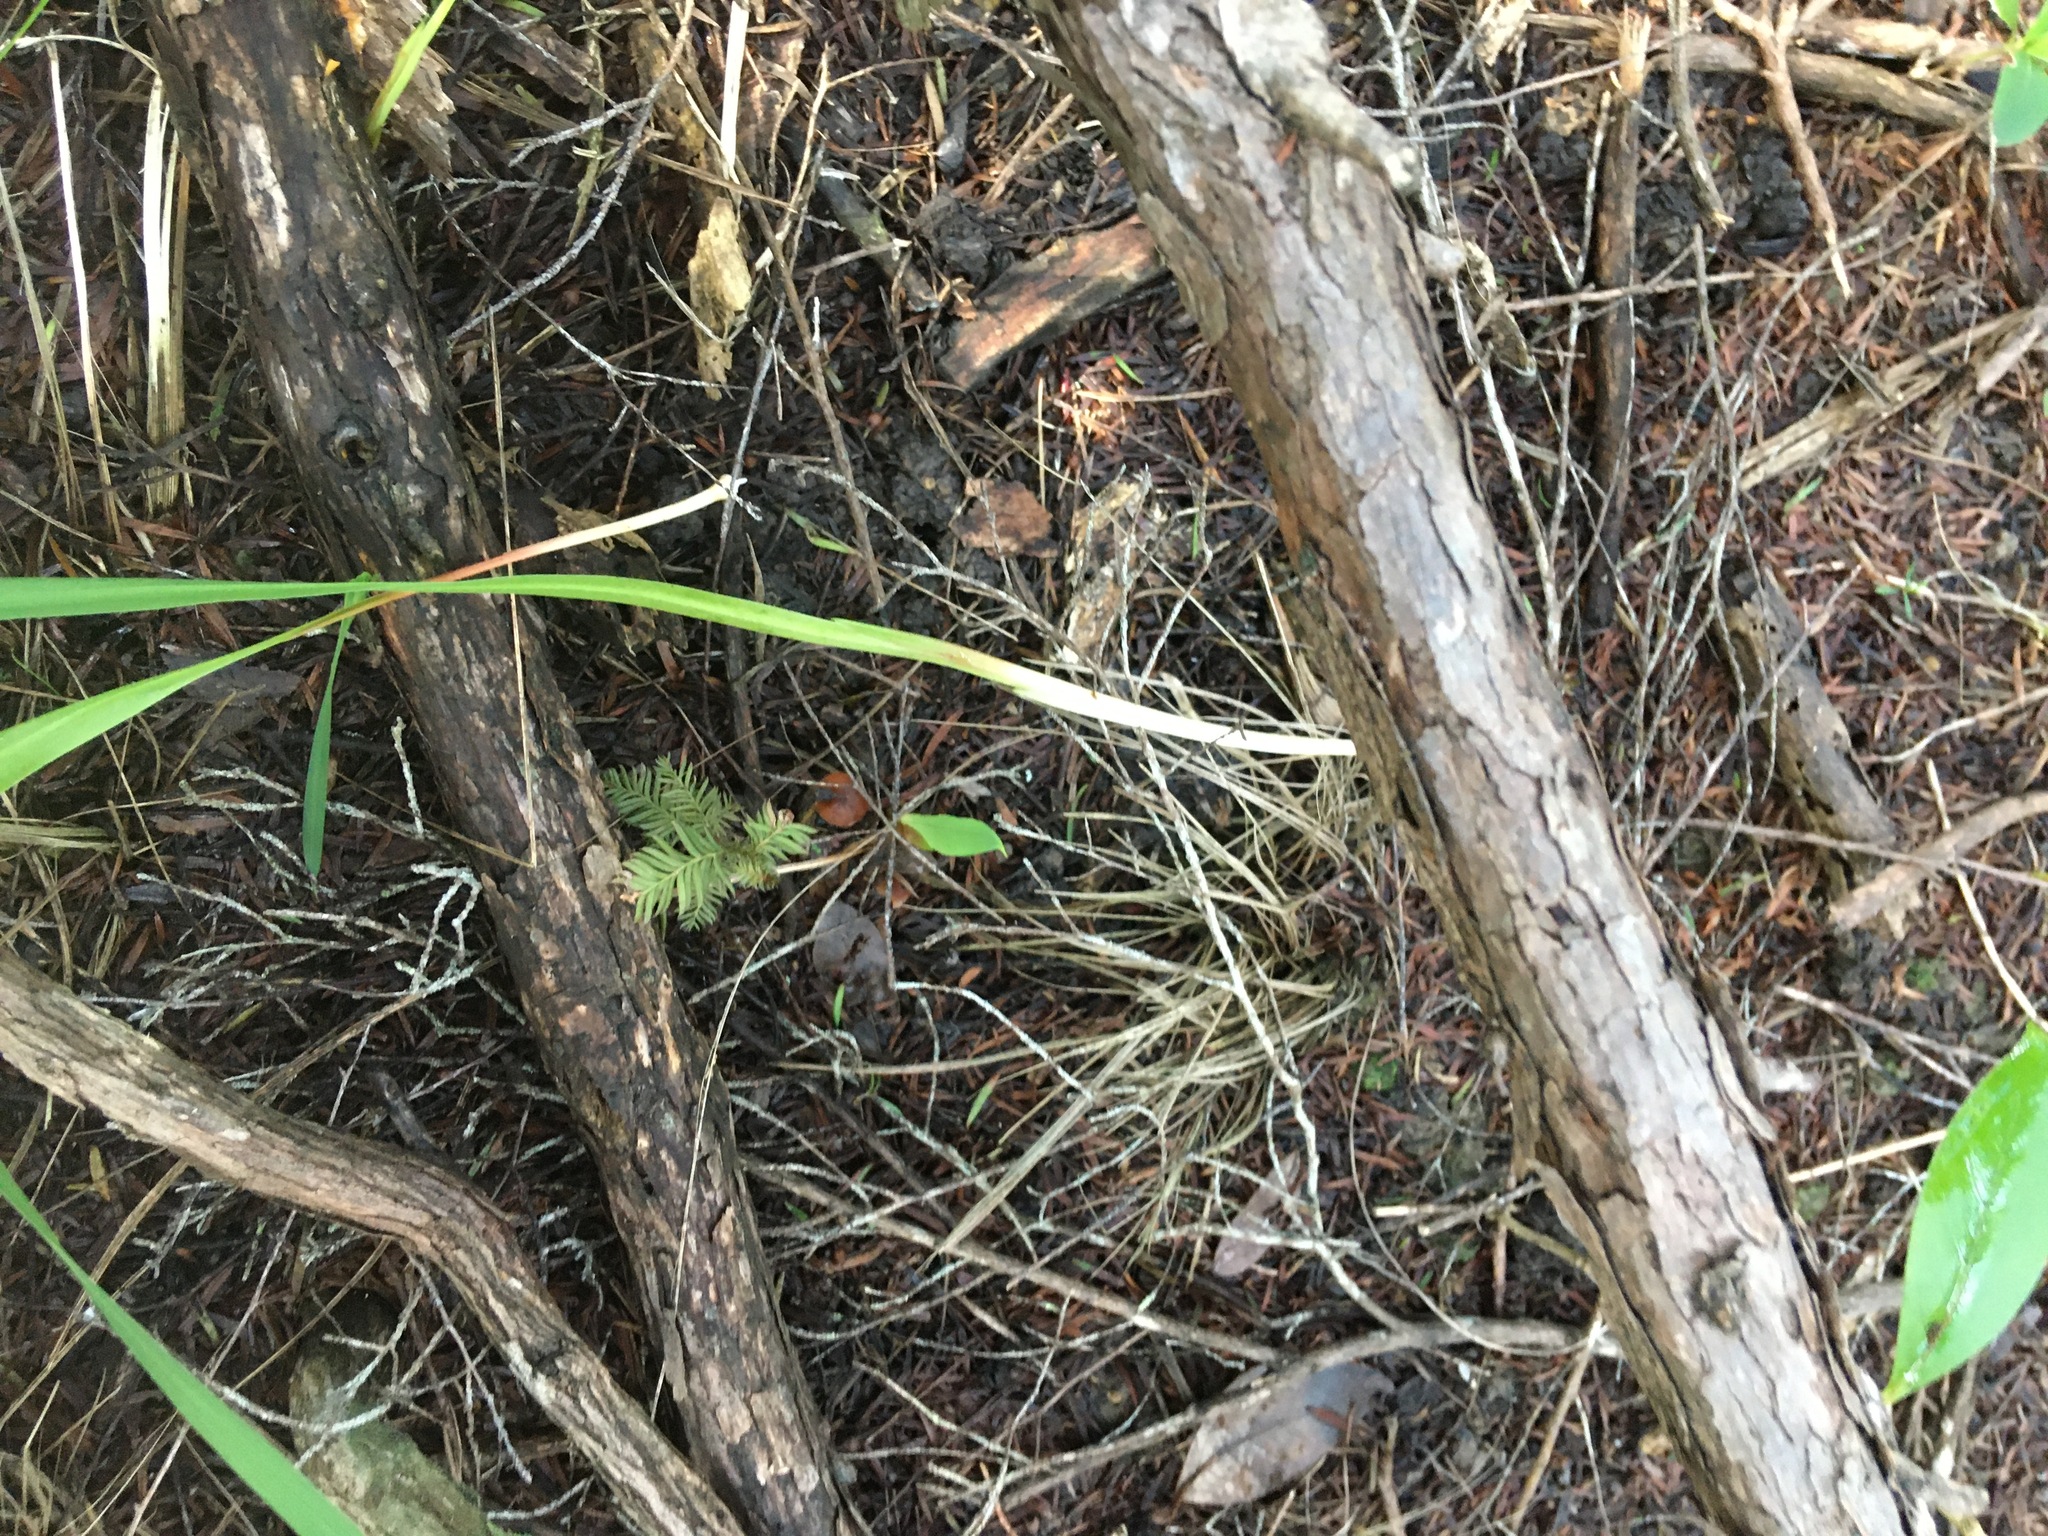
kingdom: Plantae
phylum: Tracheophyta
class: Pinopsida
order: Pinales
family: Podocarpaceae
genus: Dacrycarpus
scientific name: Dacrycarpus dacrydioides
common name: White pine
